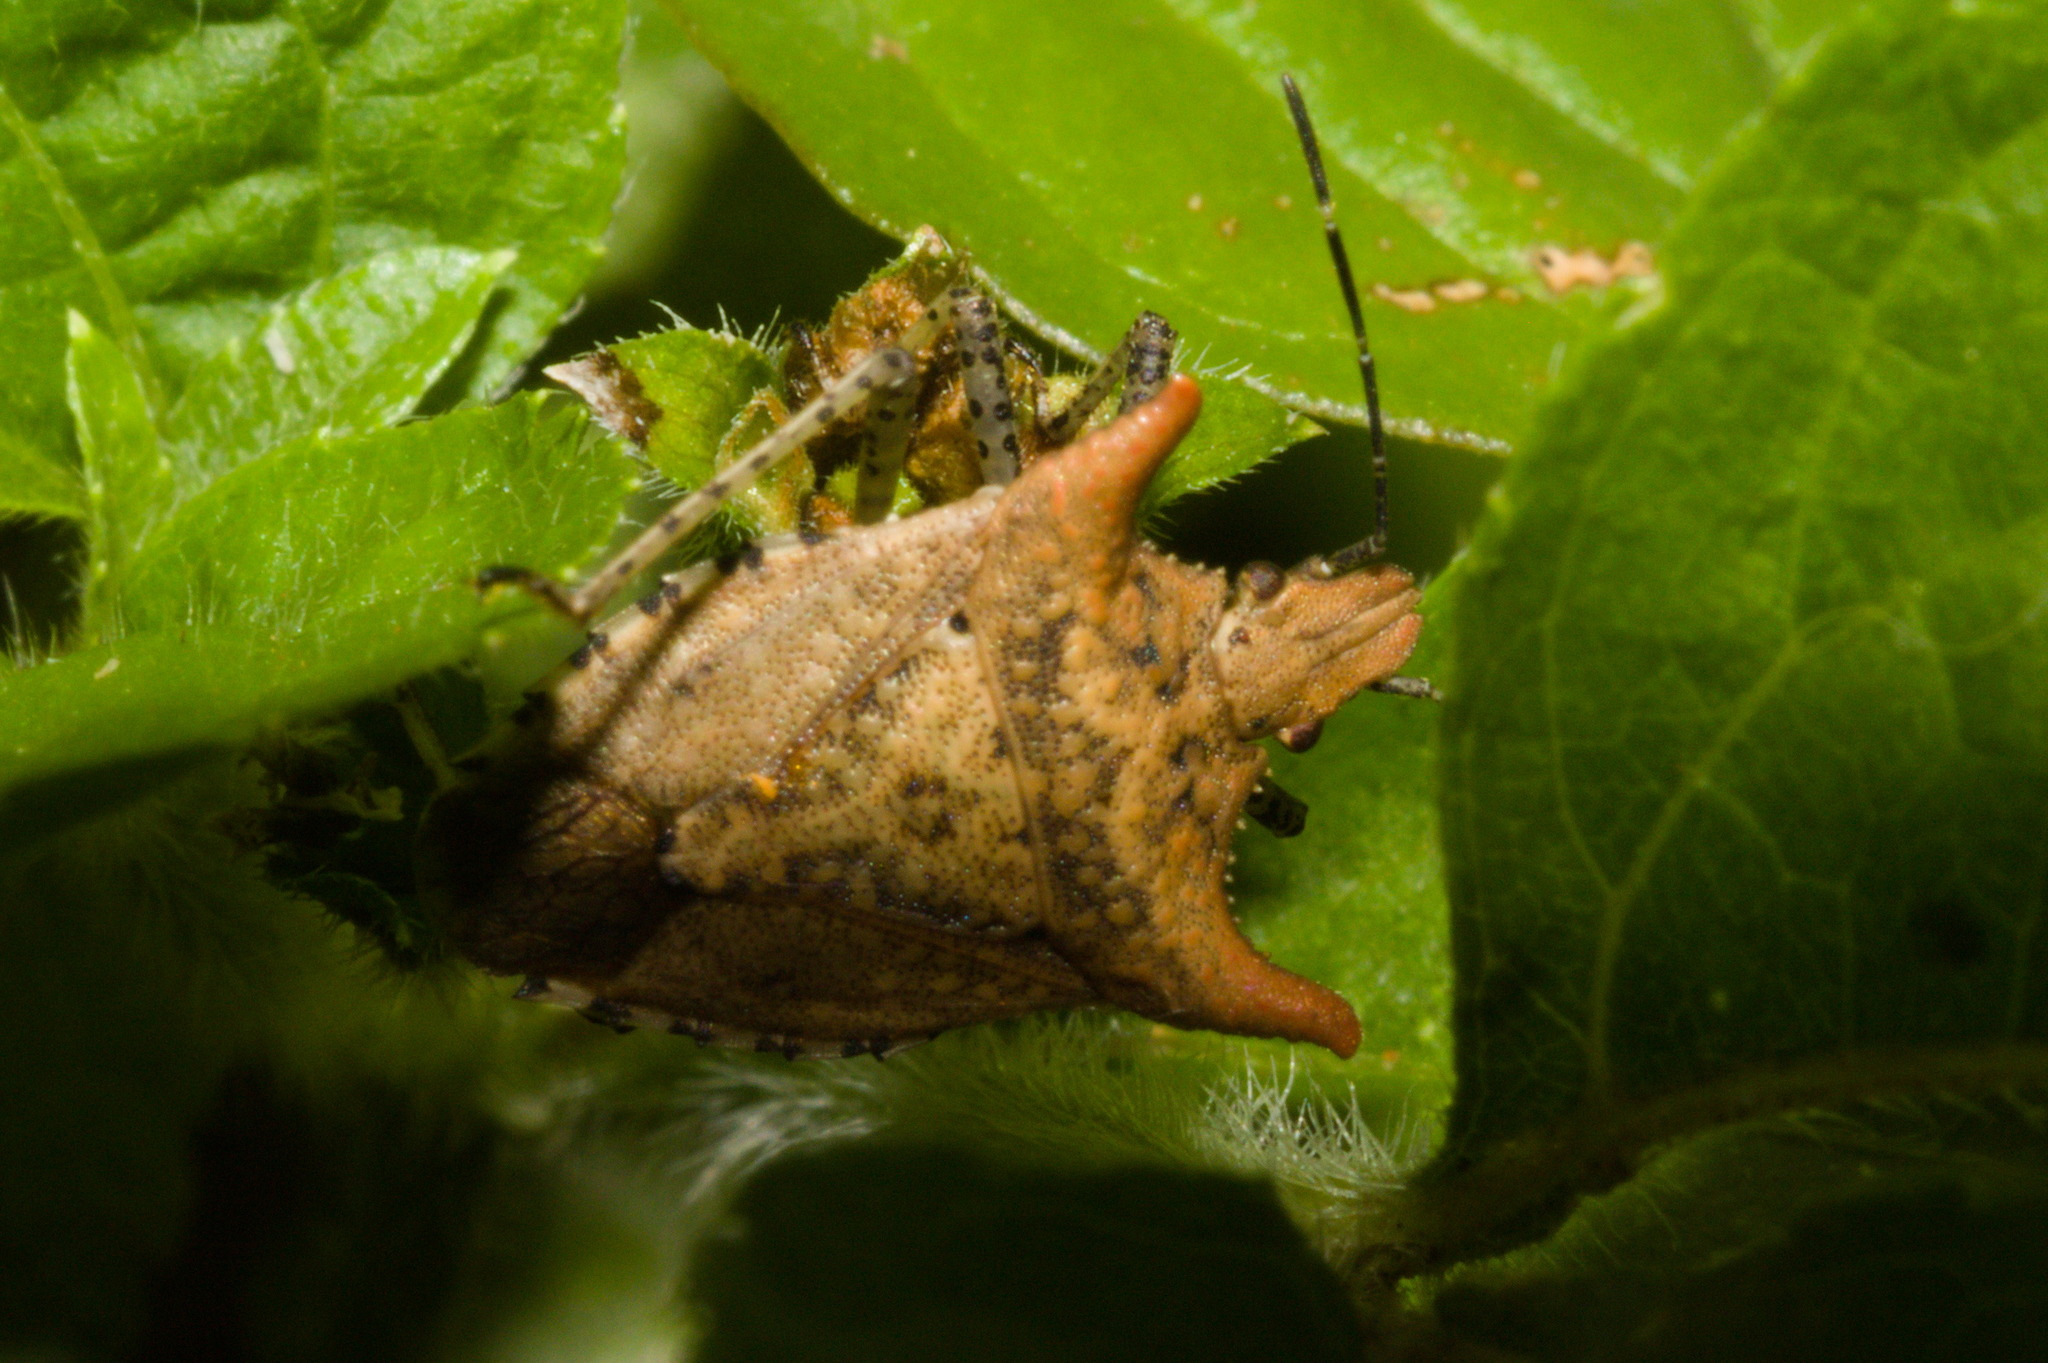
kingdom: Animalia
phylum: Arthropoda
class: Insecta
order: Hemiptera
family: Pentatomidae
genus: Euschistus
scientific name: Euschistus cornutus
